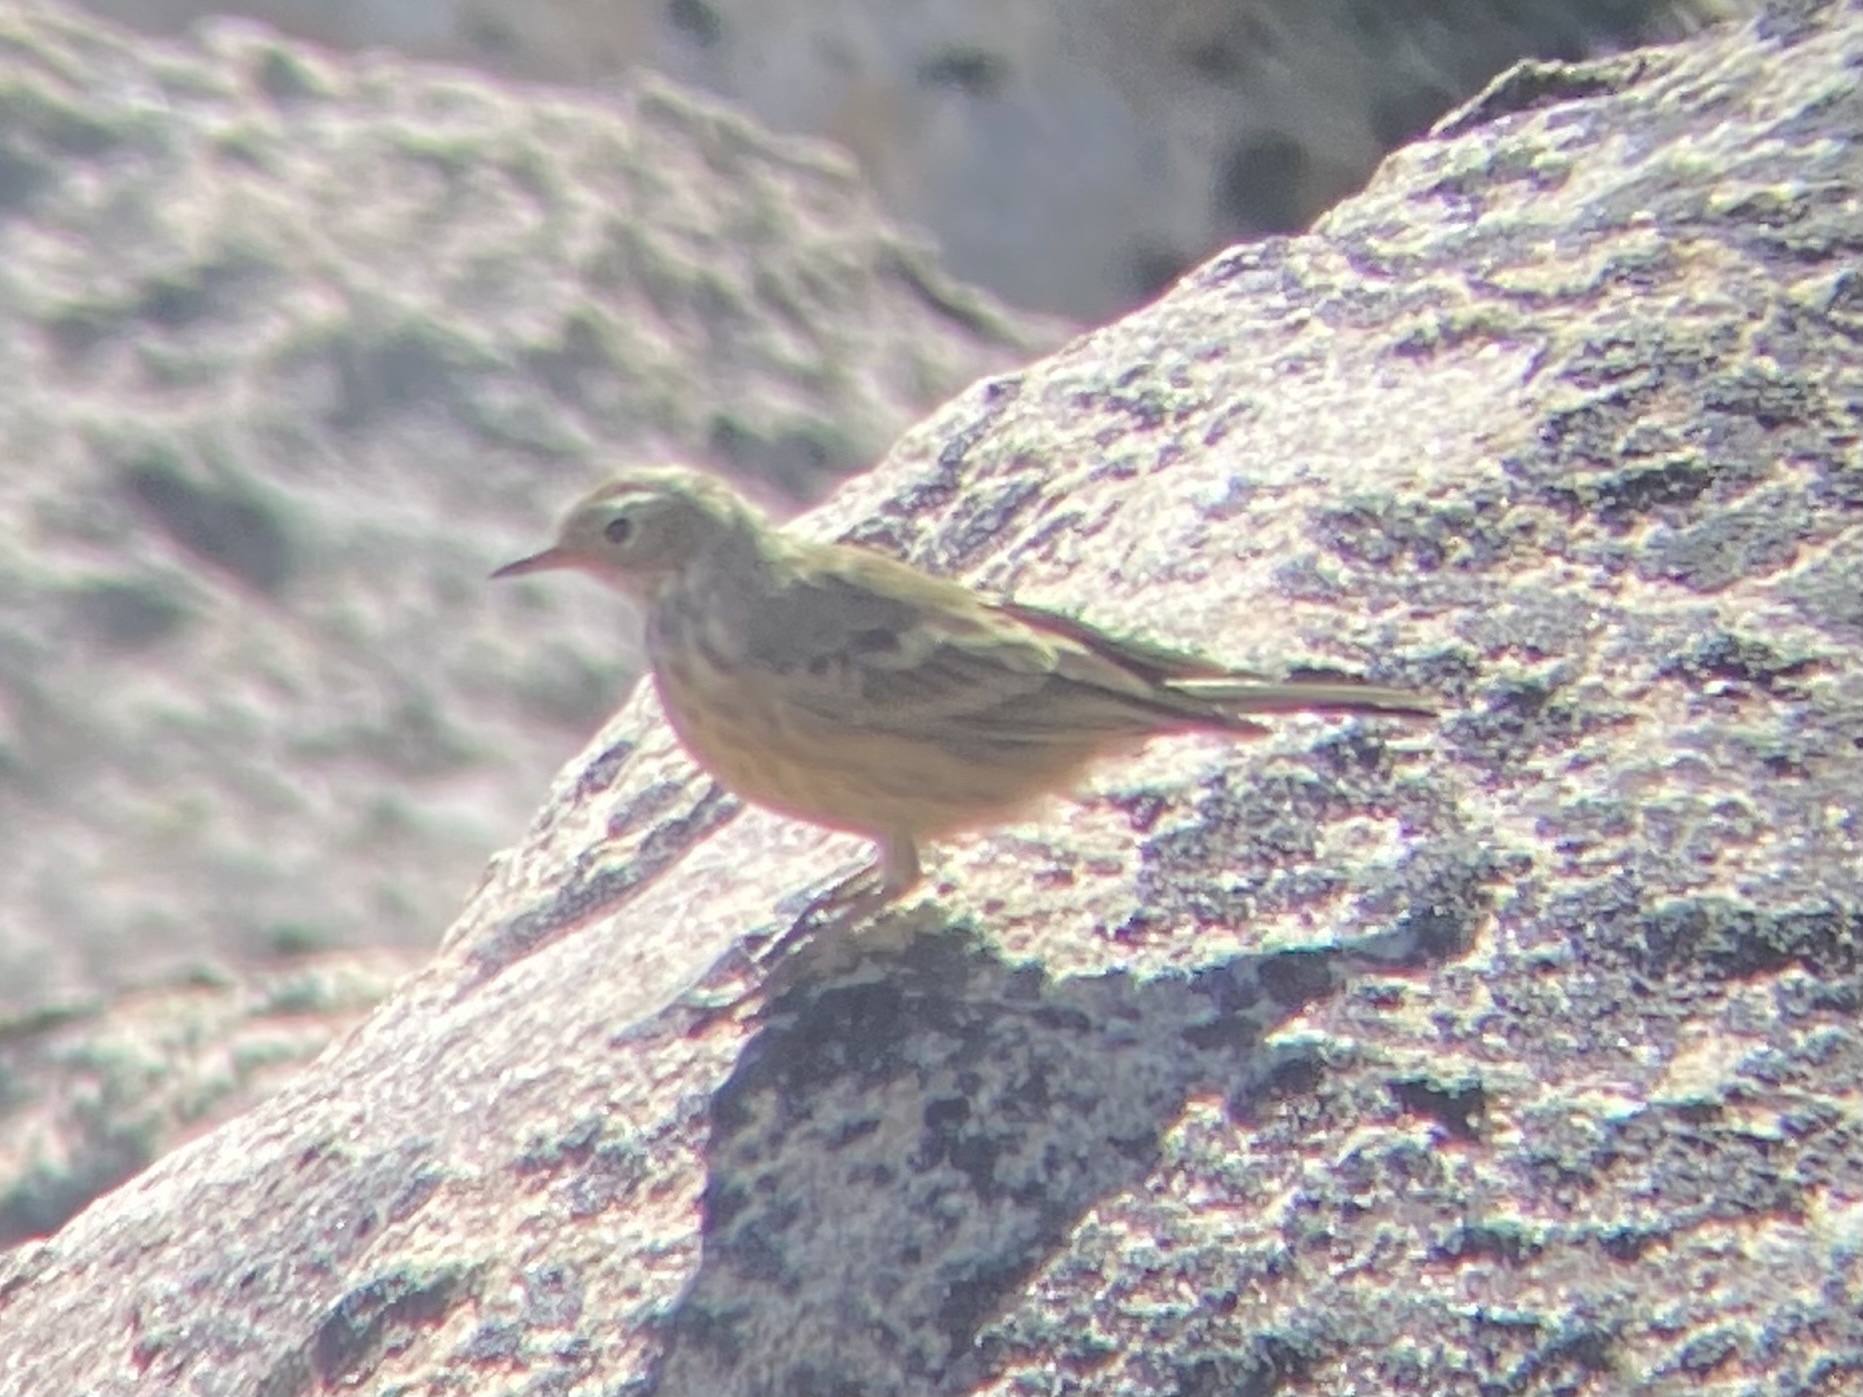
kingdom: Animalia
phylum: Chordata
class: Aves
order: Passeriformes
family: Motacillidae
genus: Anthus
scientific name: Anthus rubescens
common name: Buff-bellied pipit
